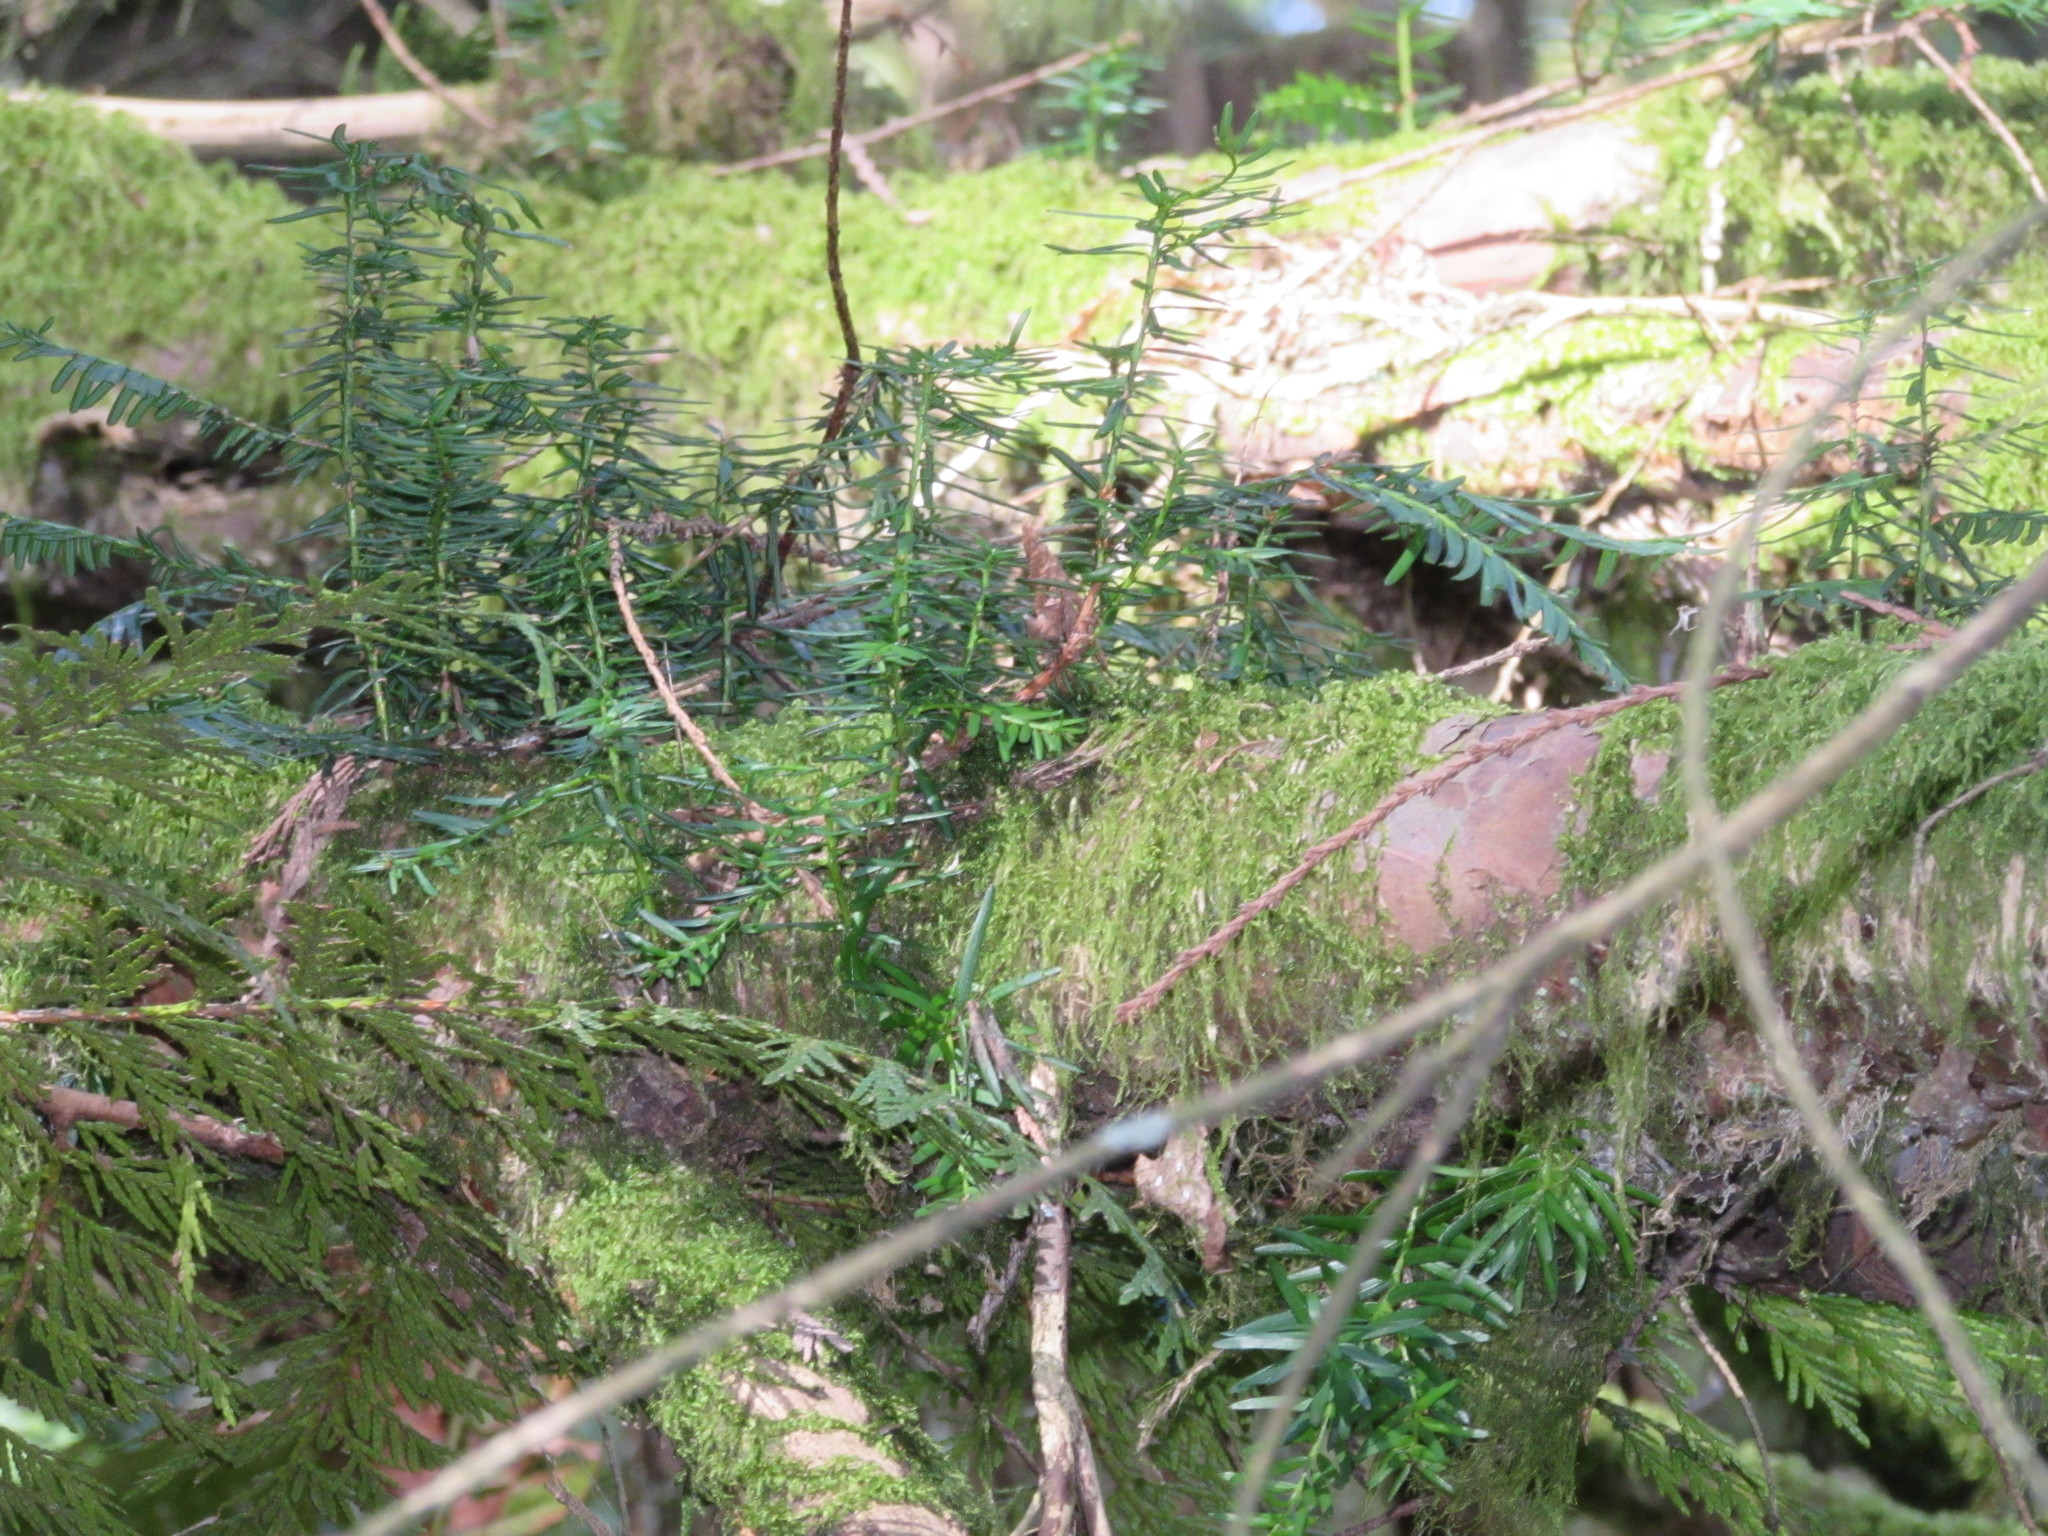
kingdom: Plantae
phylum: Tracheophyta
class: Pinopsida
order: Pinales
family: Taxaceae
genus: Taxus
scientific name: Taxus brevifolia
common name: Pacific yew
